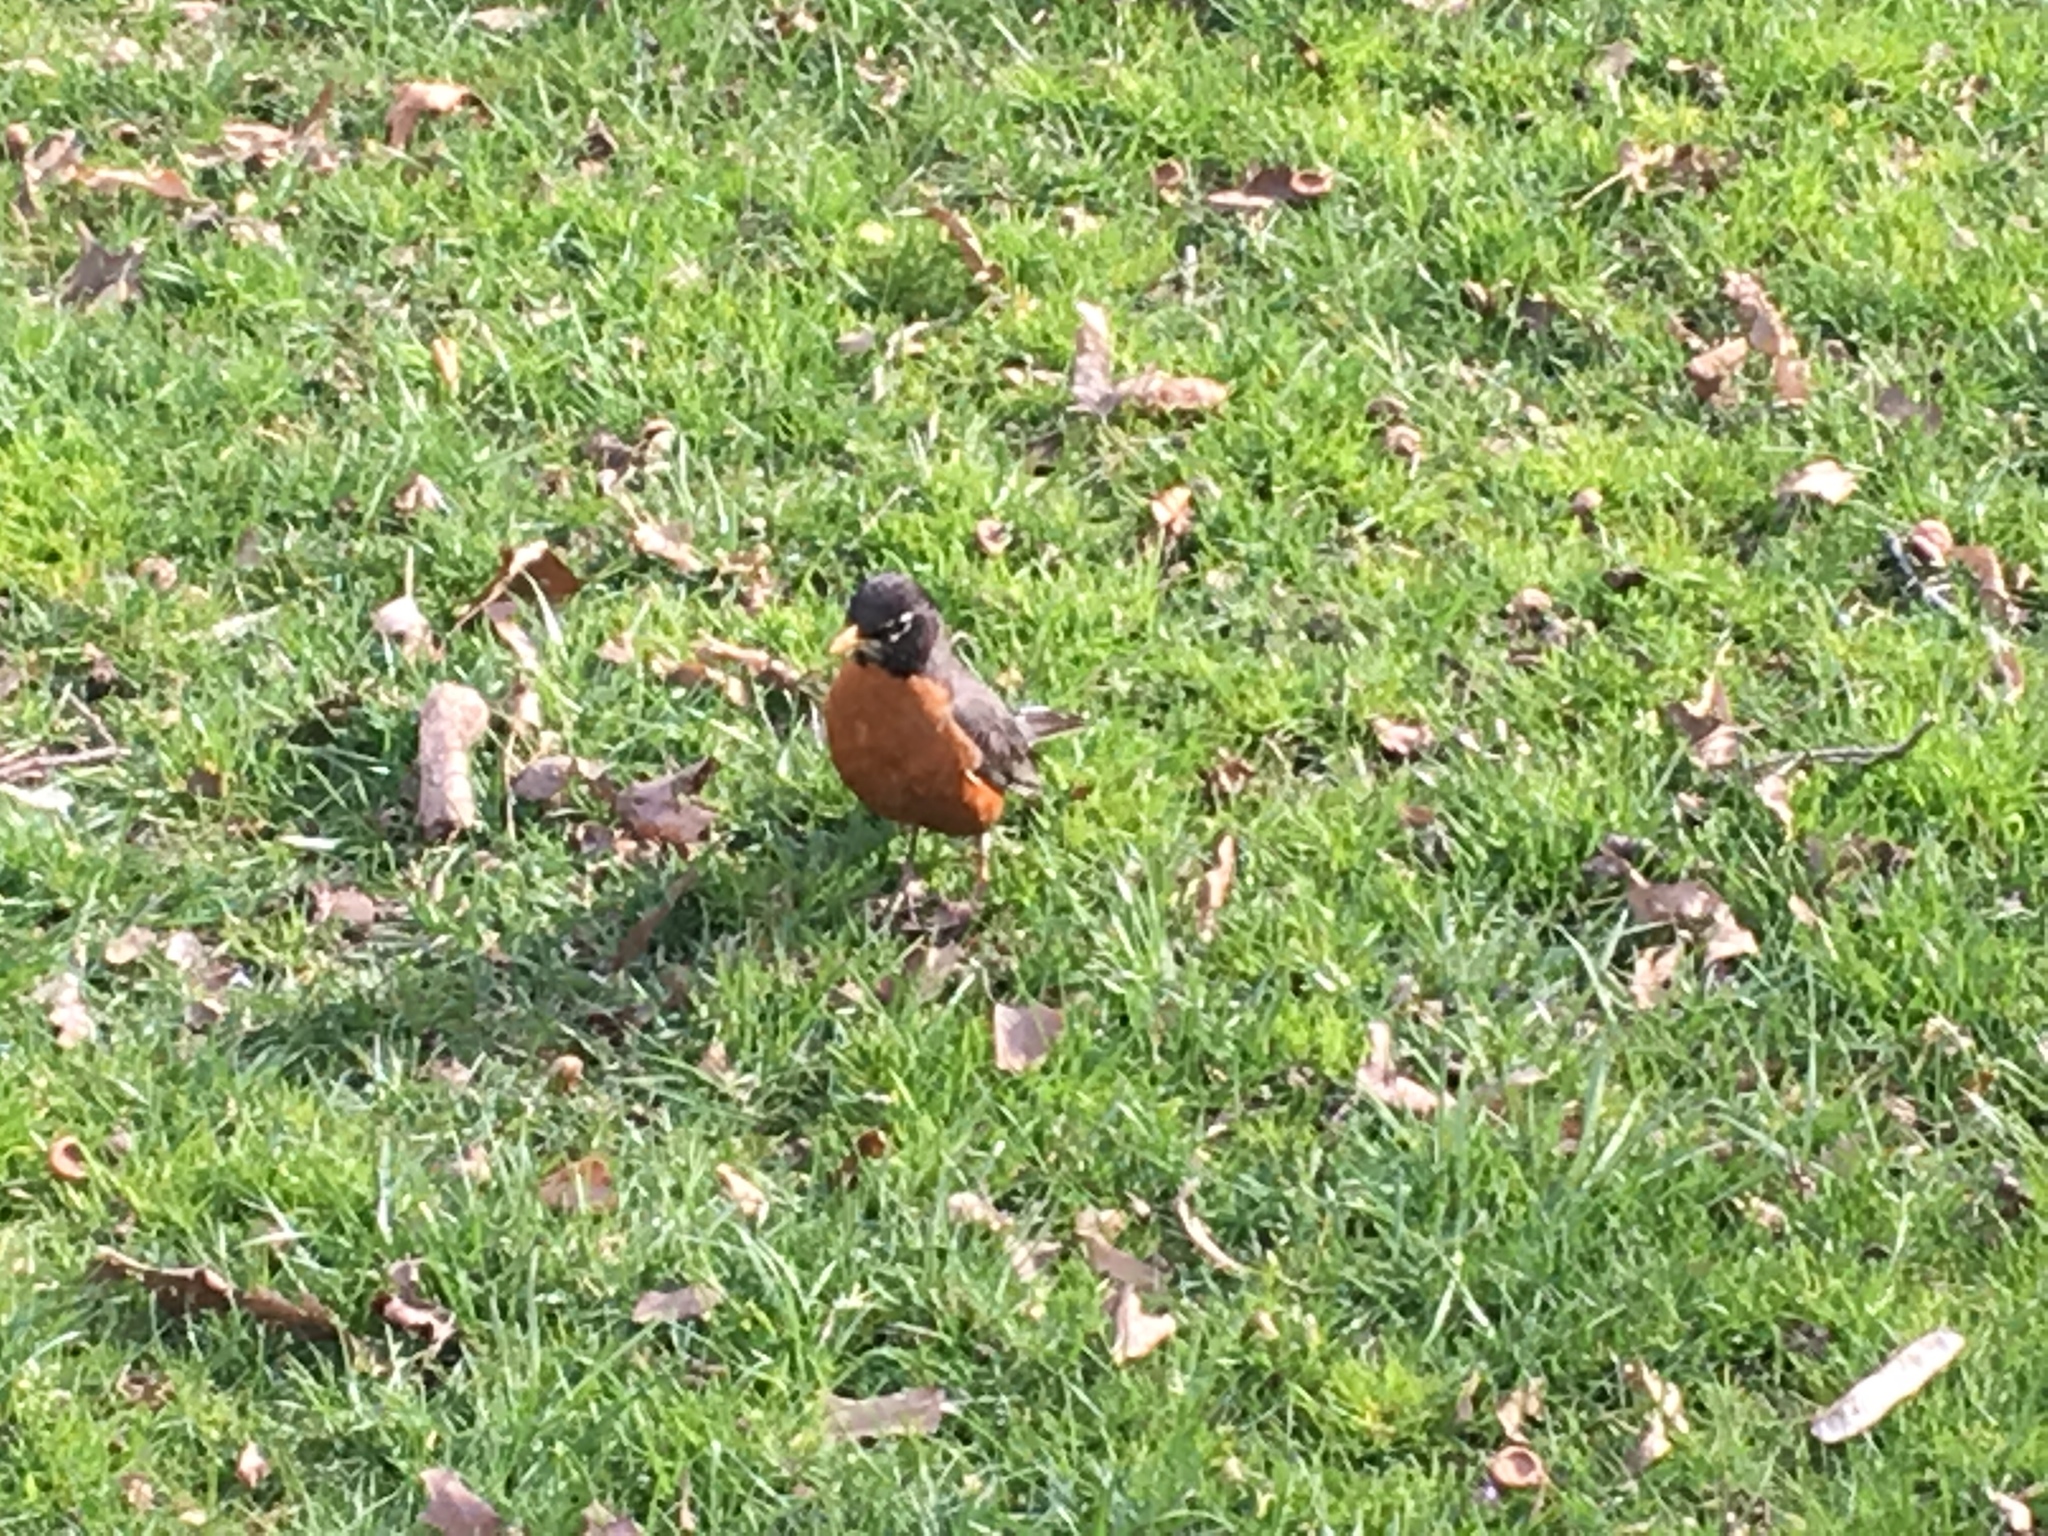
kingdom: Animalia
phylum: Chordata
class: Aves
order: Passeriformes
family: Turdidae
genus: Turdus
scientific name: Turdus migratorius
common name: American robin
